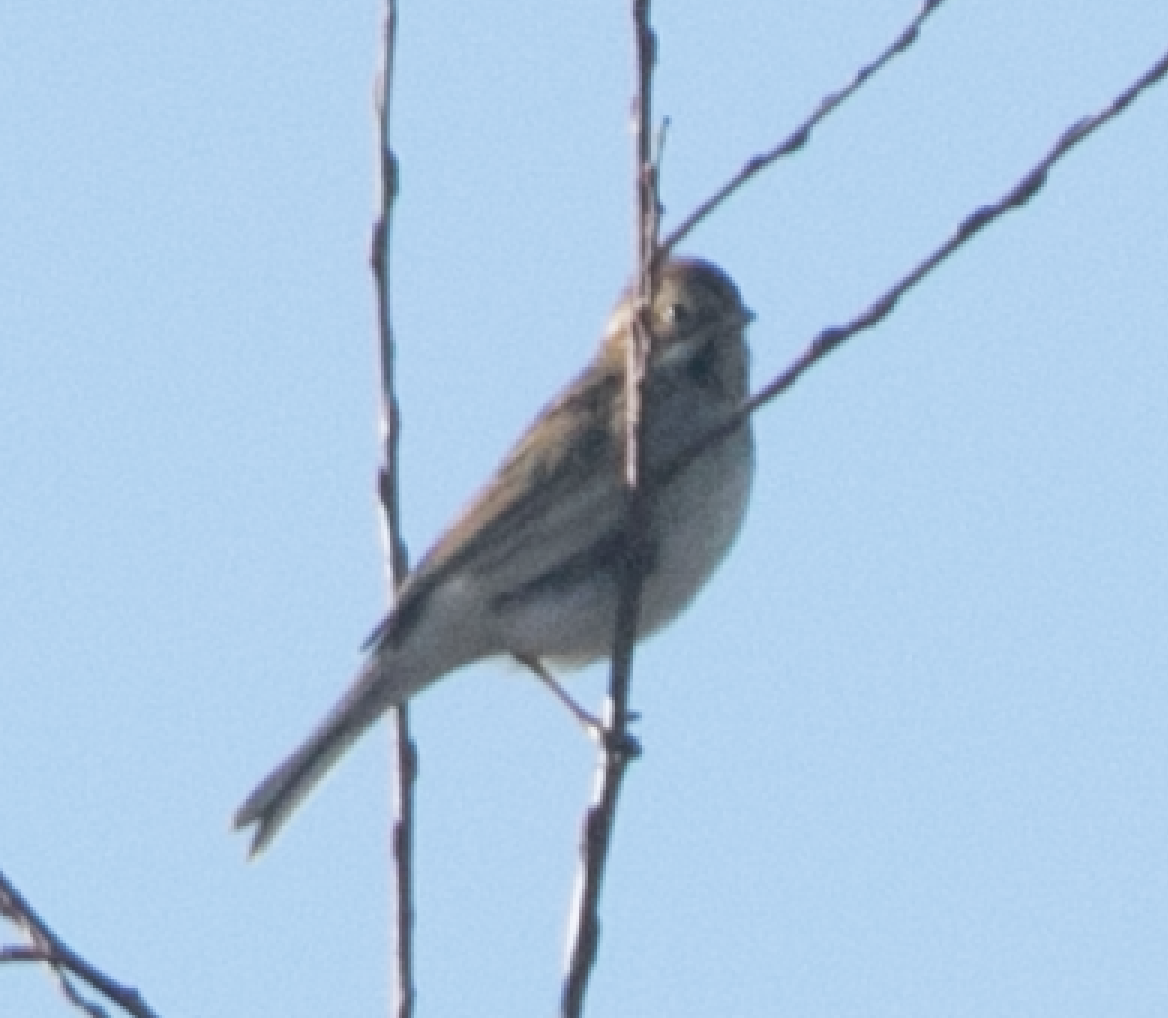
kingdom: Animalia
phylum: Chordata
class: Aves
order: Passeriformes
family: Emberizidae
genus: Emberiza
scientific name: Emberiza schoeniclus
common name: Reed bunting
